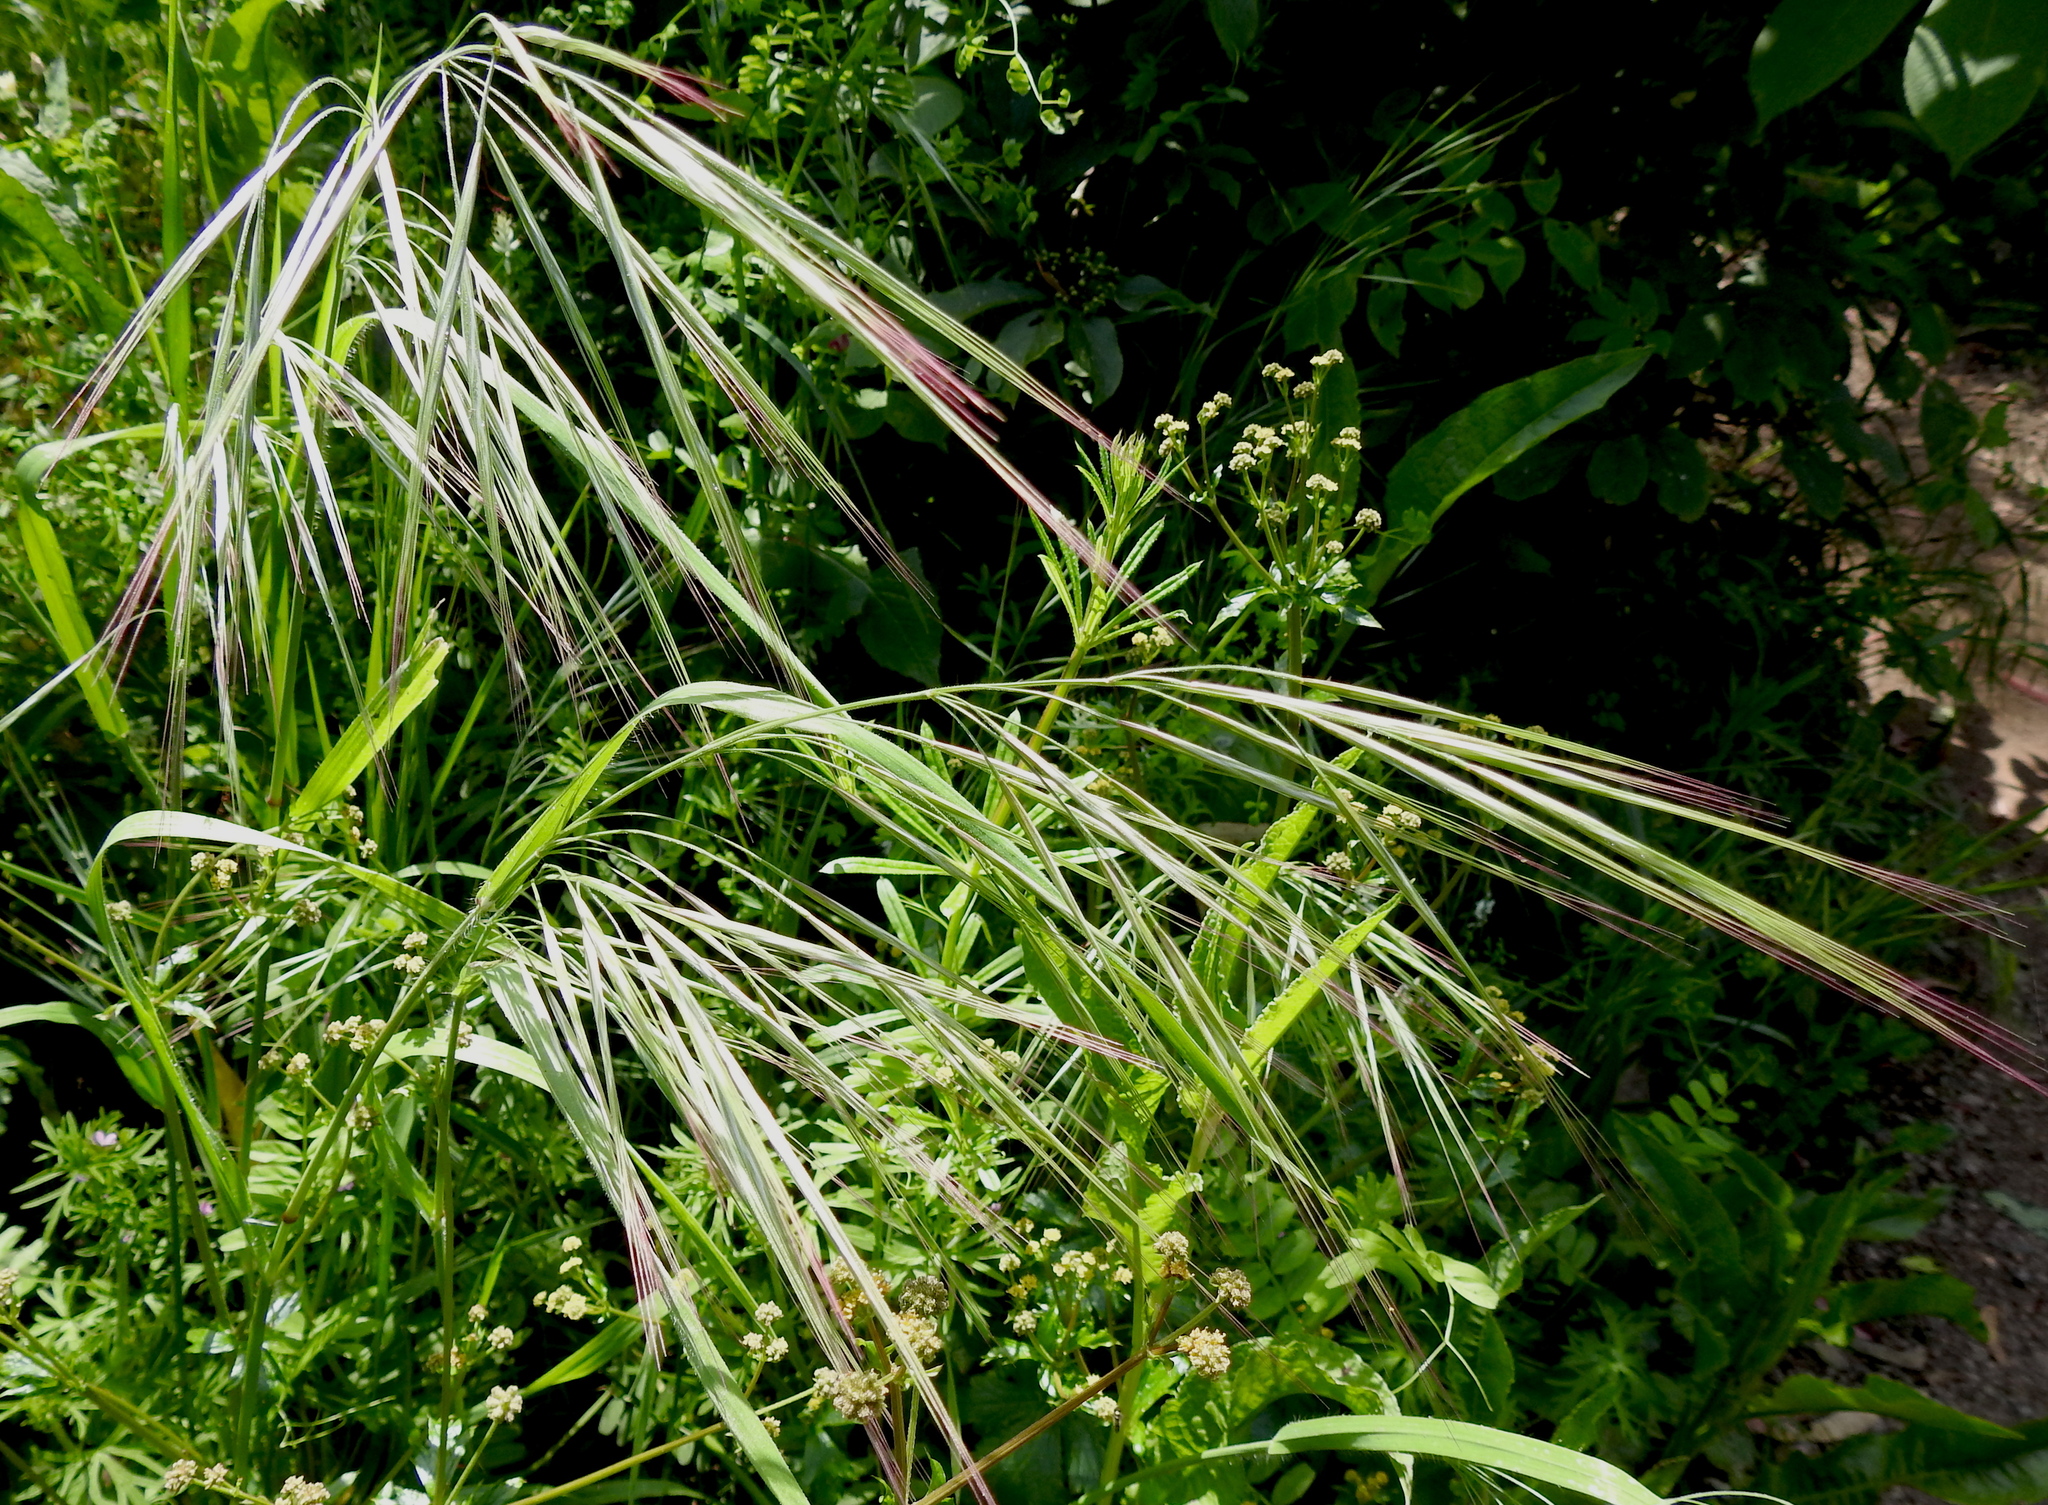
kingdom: Plantae
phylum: Tracheophyta
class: Liliopsida
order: Poales
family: Poaceae
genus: Bromus
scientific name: Bromus diandrus
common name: Ripgut brome
